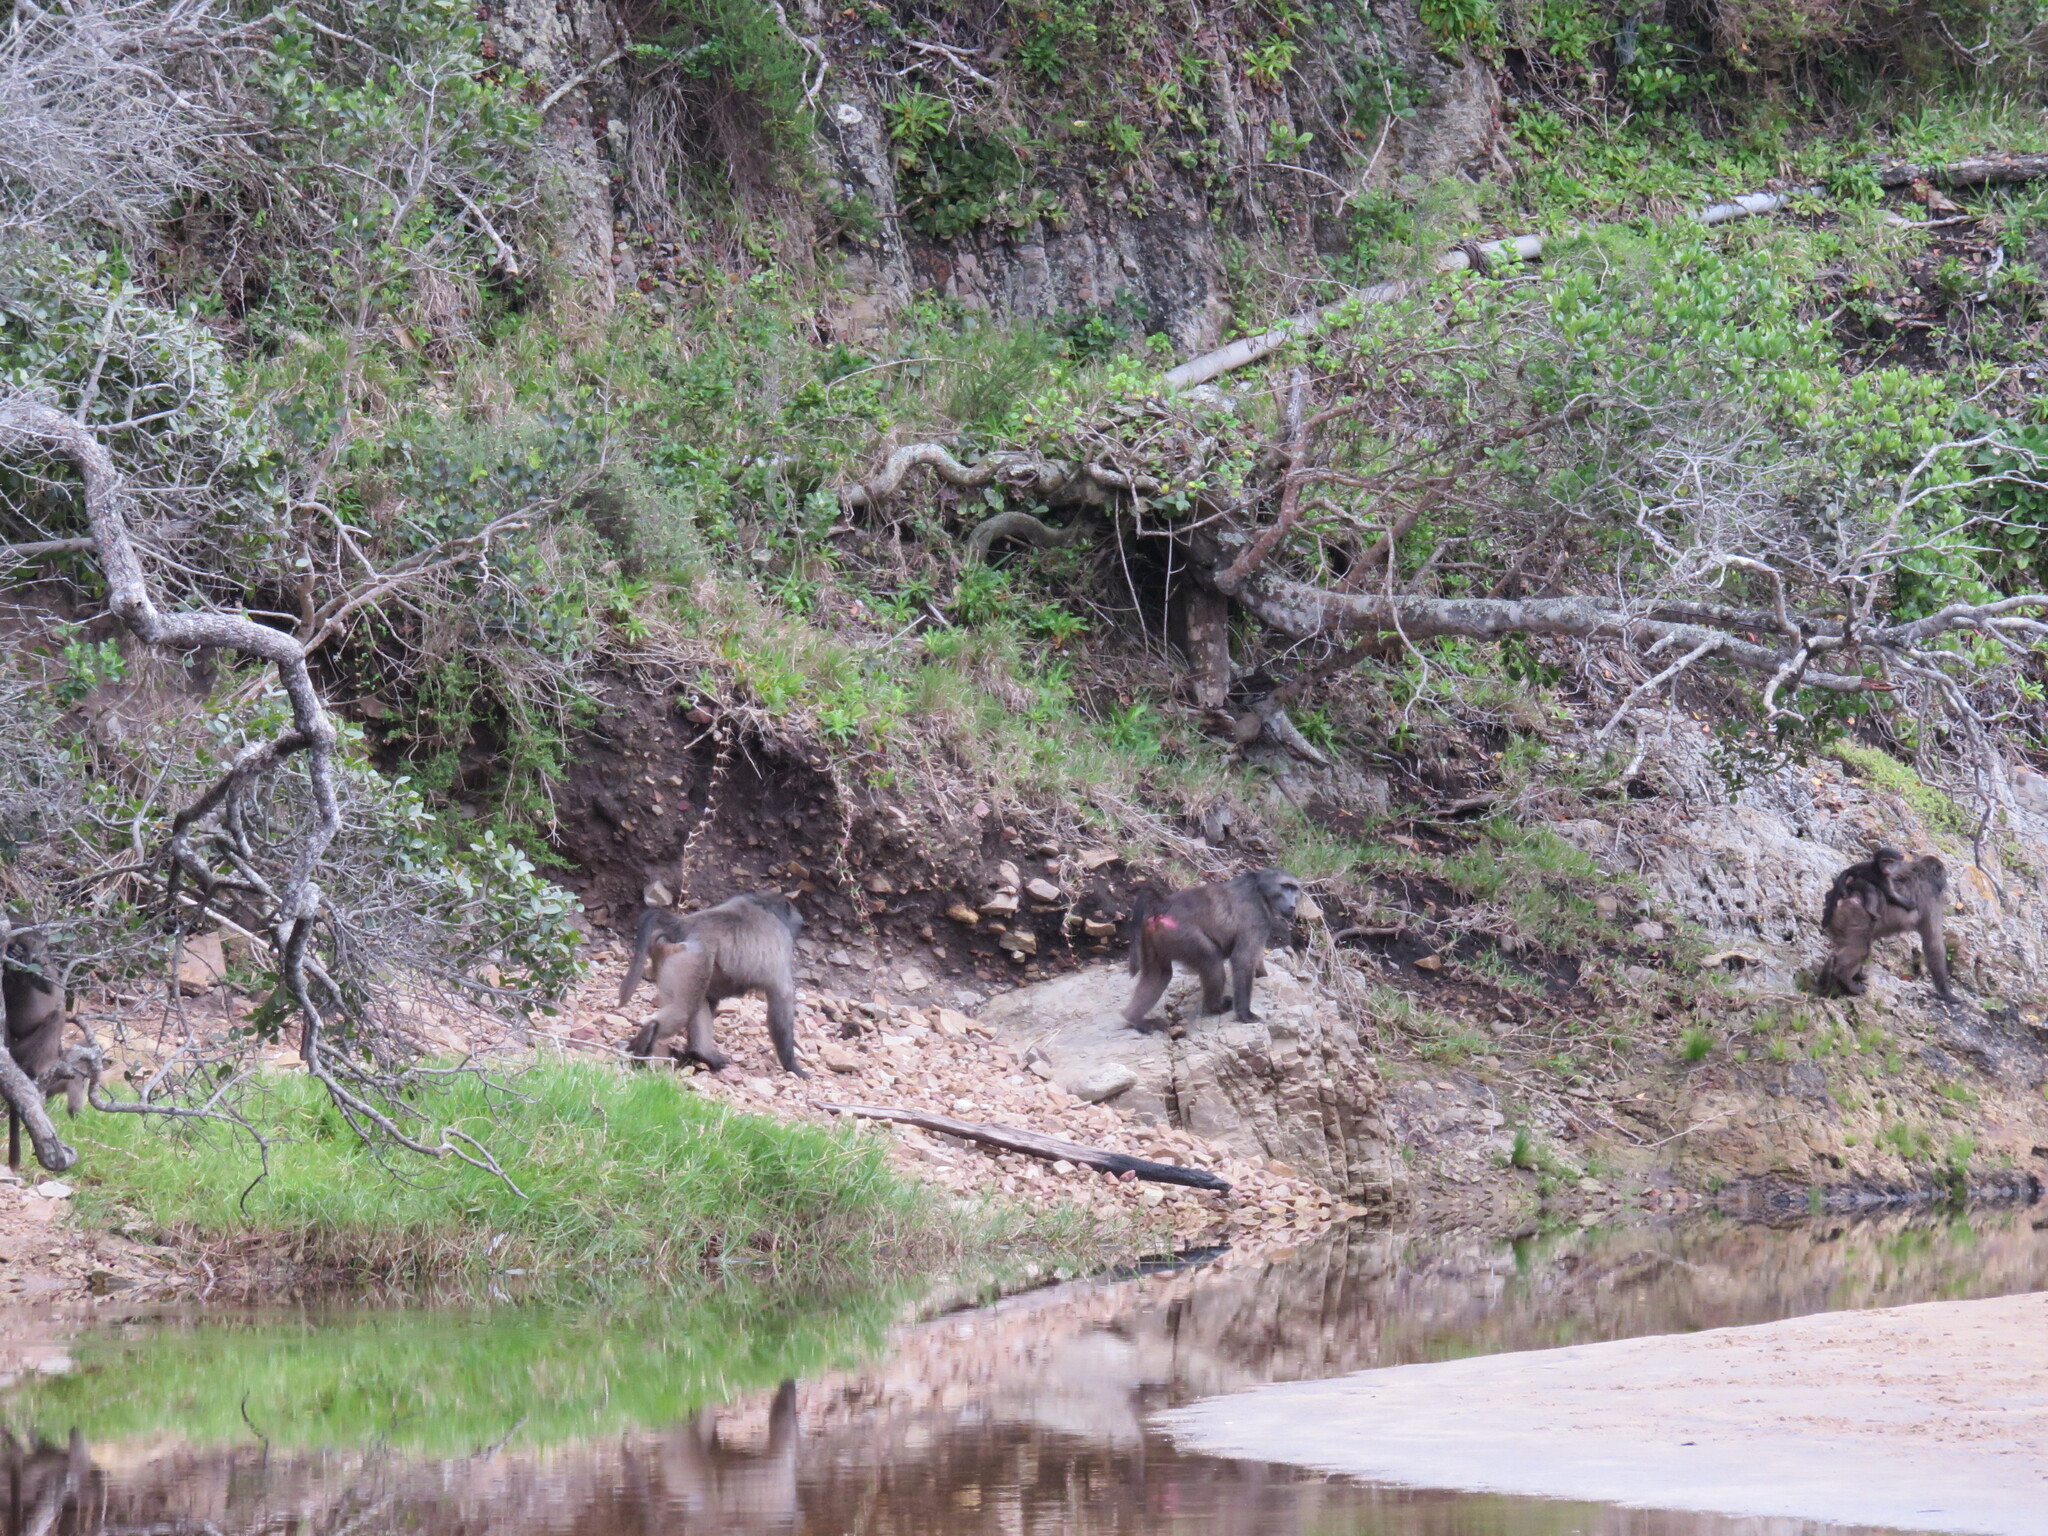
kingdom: Animalia
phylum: Chordata
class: Mammalia
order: Primates
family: Cercopithecidae
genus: Papio
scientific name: Papio ursinus
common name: Chacma baboon
